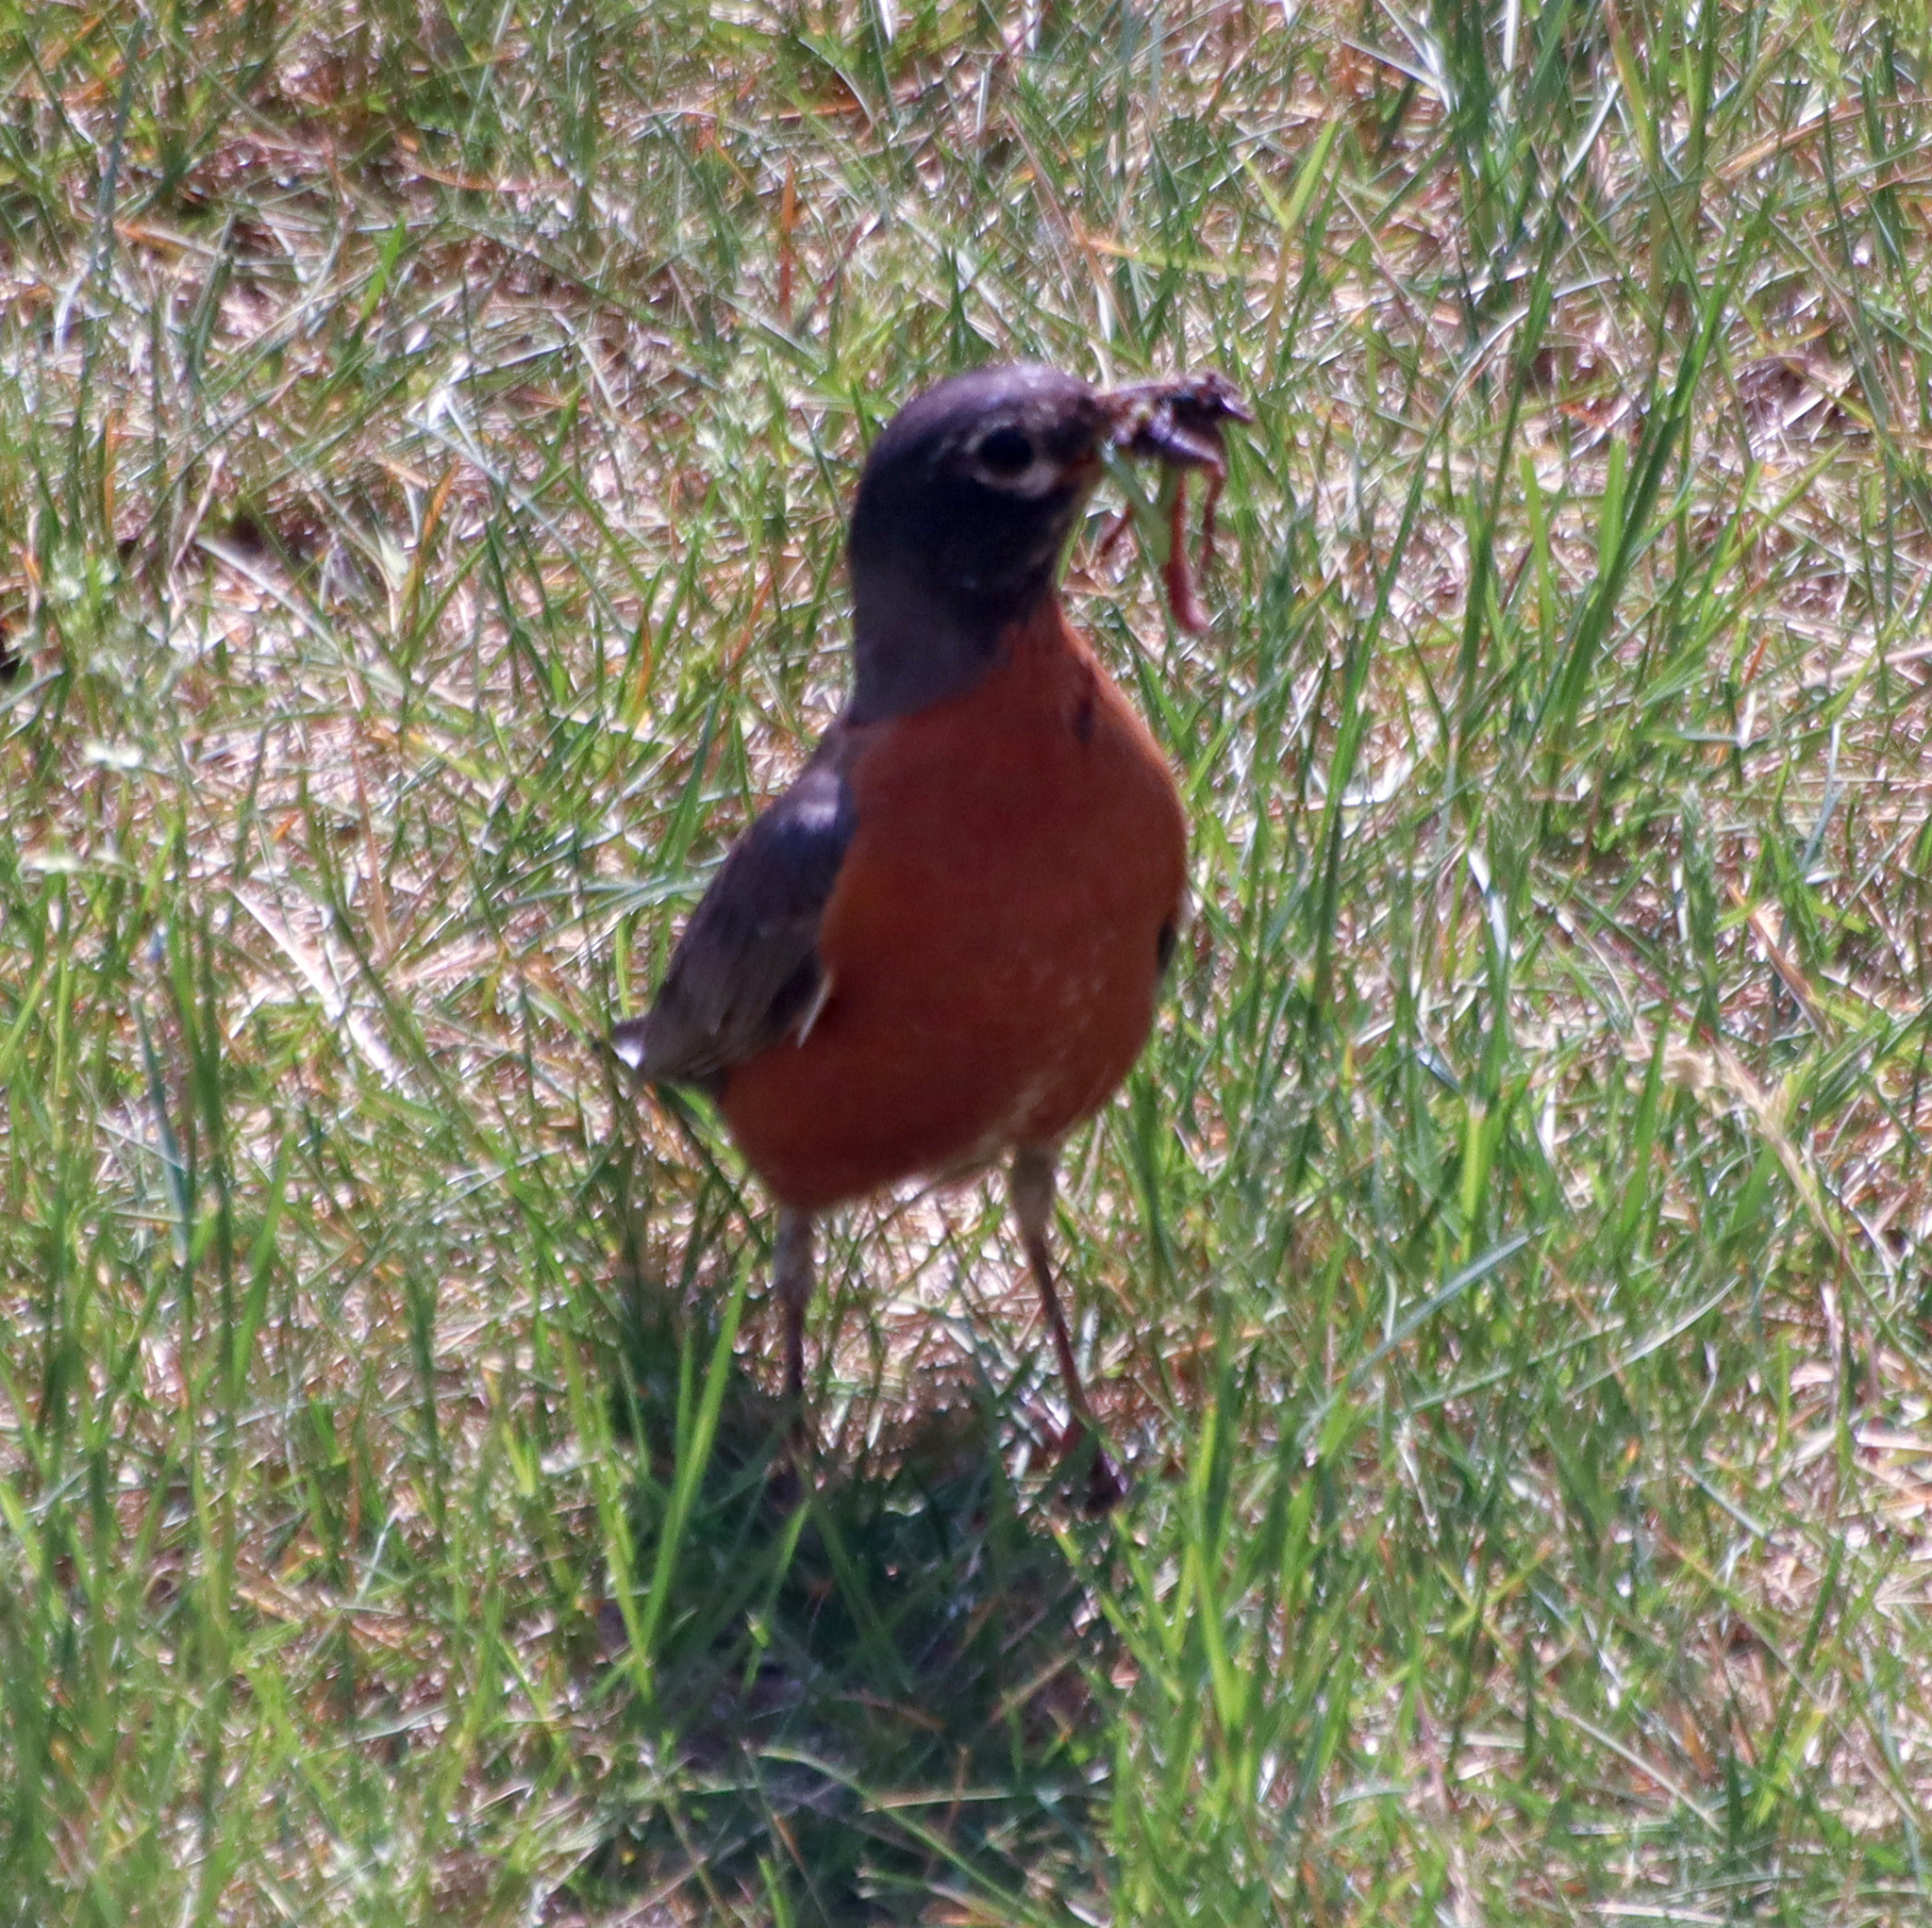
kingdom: Animalia
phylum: Chordata
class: Aves
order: Passeriformes
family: Turdidae
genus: Turdus
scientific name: Turdus migratorius
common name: American robin
